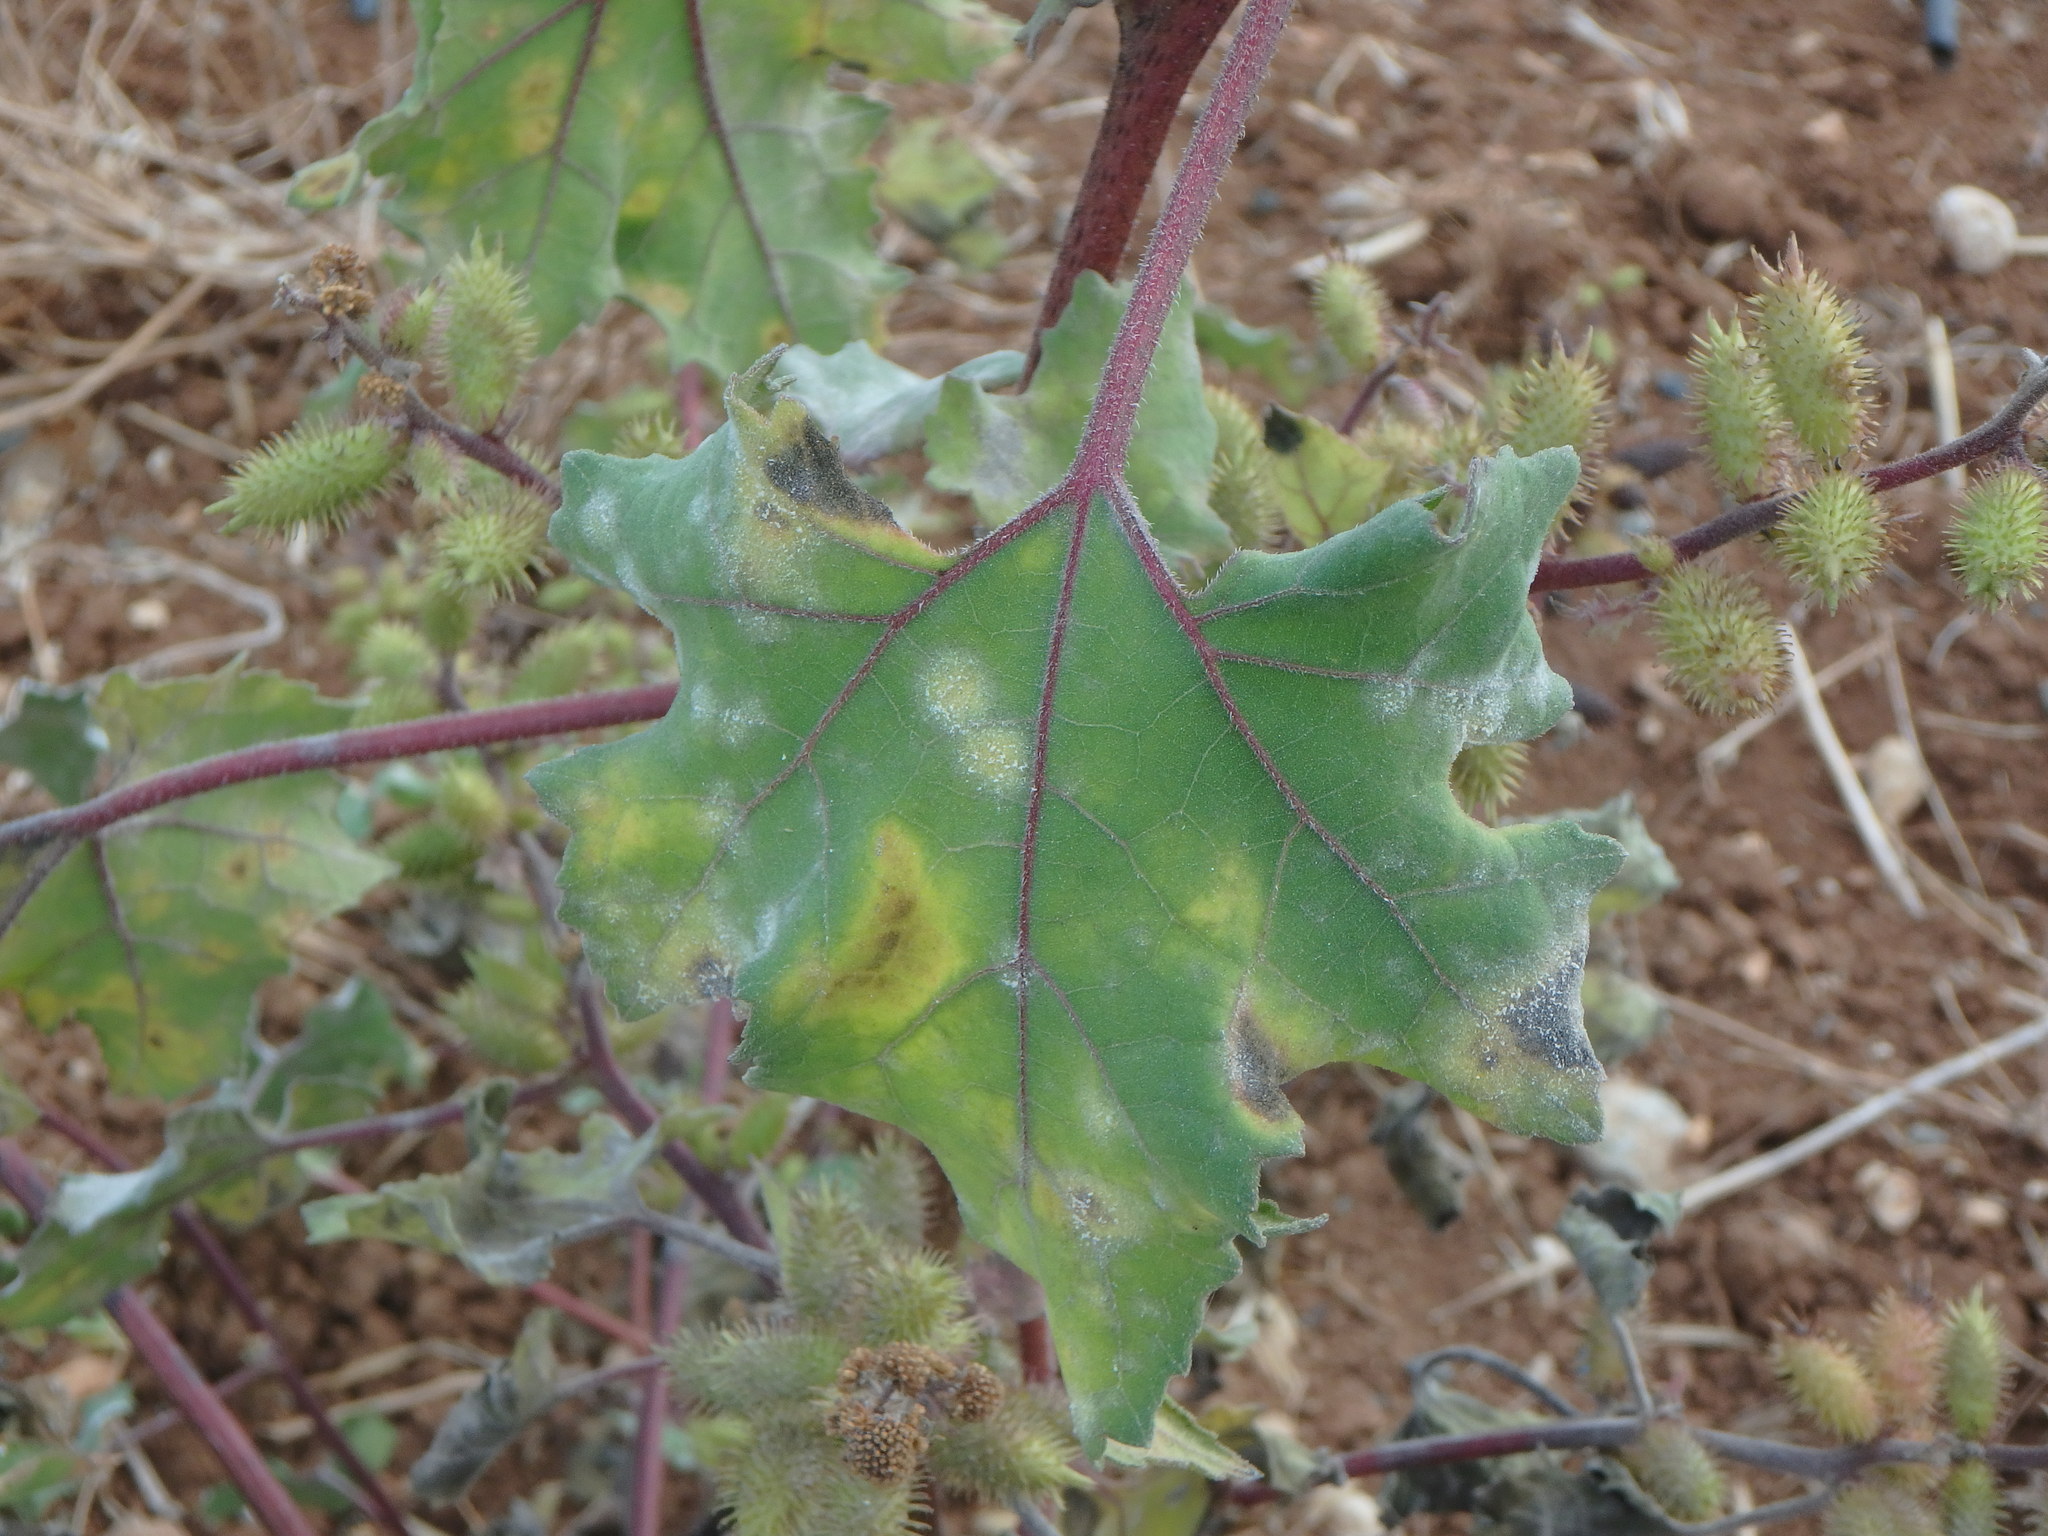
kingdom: Plantae
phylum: Tracheophyta
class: Magnoliopsida
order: Asterales
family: Asteraceae
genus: Xanthium
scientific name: Xanthium strumarium
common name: Rough cocklebur
